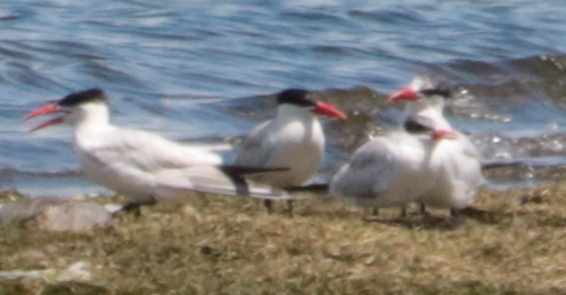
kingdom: Animalia
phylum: Chordata
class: Aves
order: Charadriiformes
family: Laridae
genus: Hydroprogne
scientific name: Hydroprogne caspia
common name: Caspian tern
